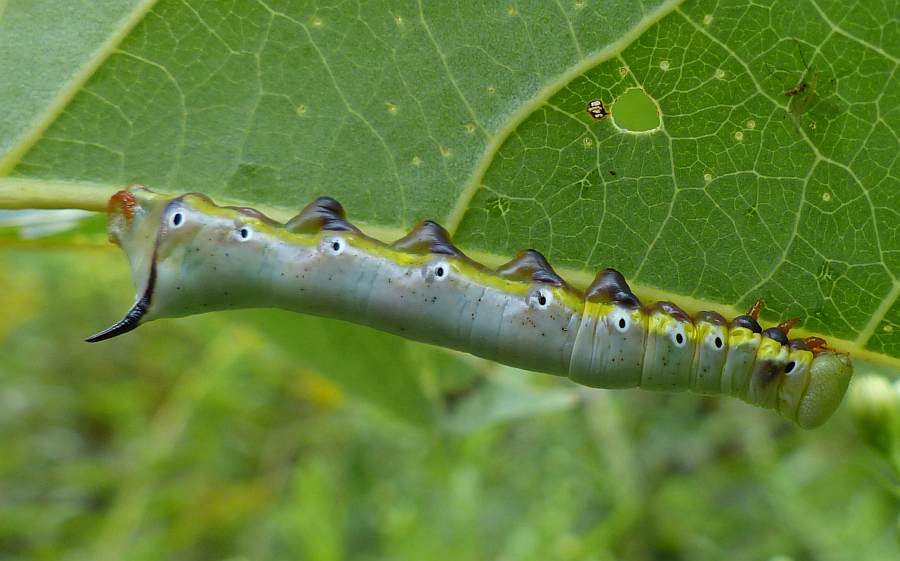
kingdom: Animalia
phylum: Arthropoda
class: Insecta
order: Lepidoptera
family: Notodontidae
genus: Pheosia
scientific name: Pheosia rimosa
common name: Black-rimmed prominent
